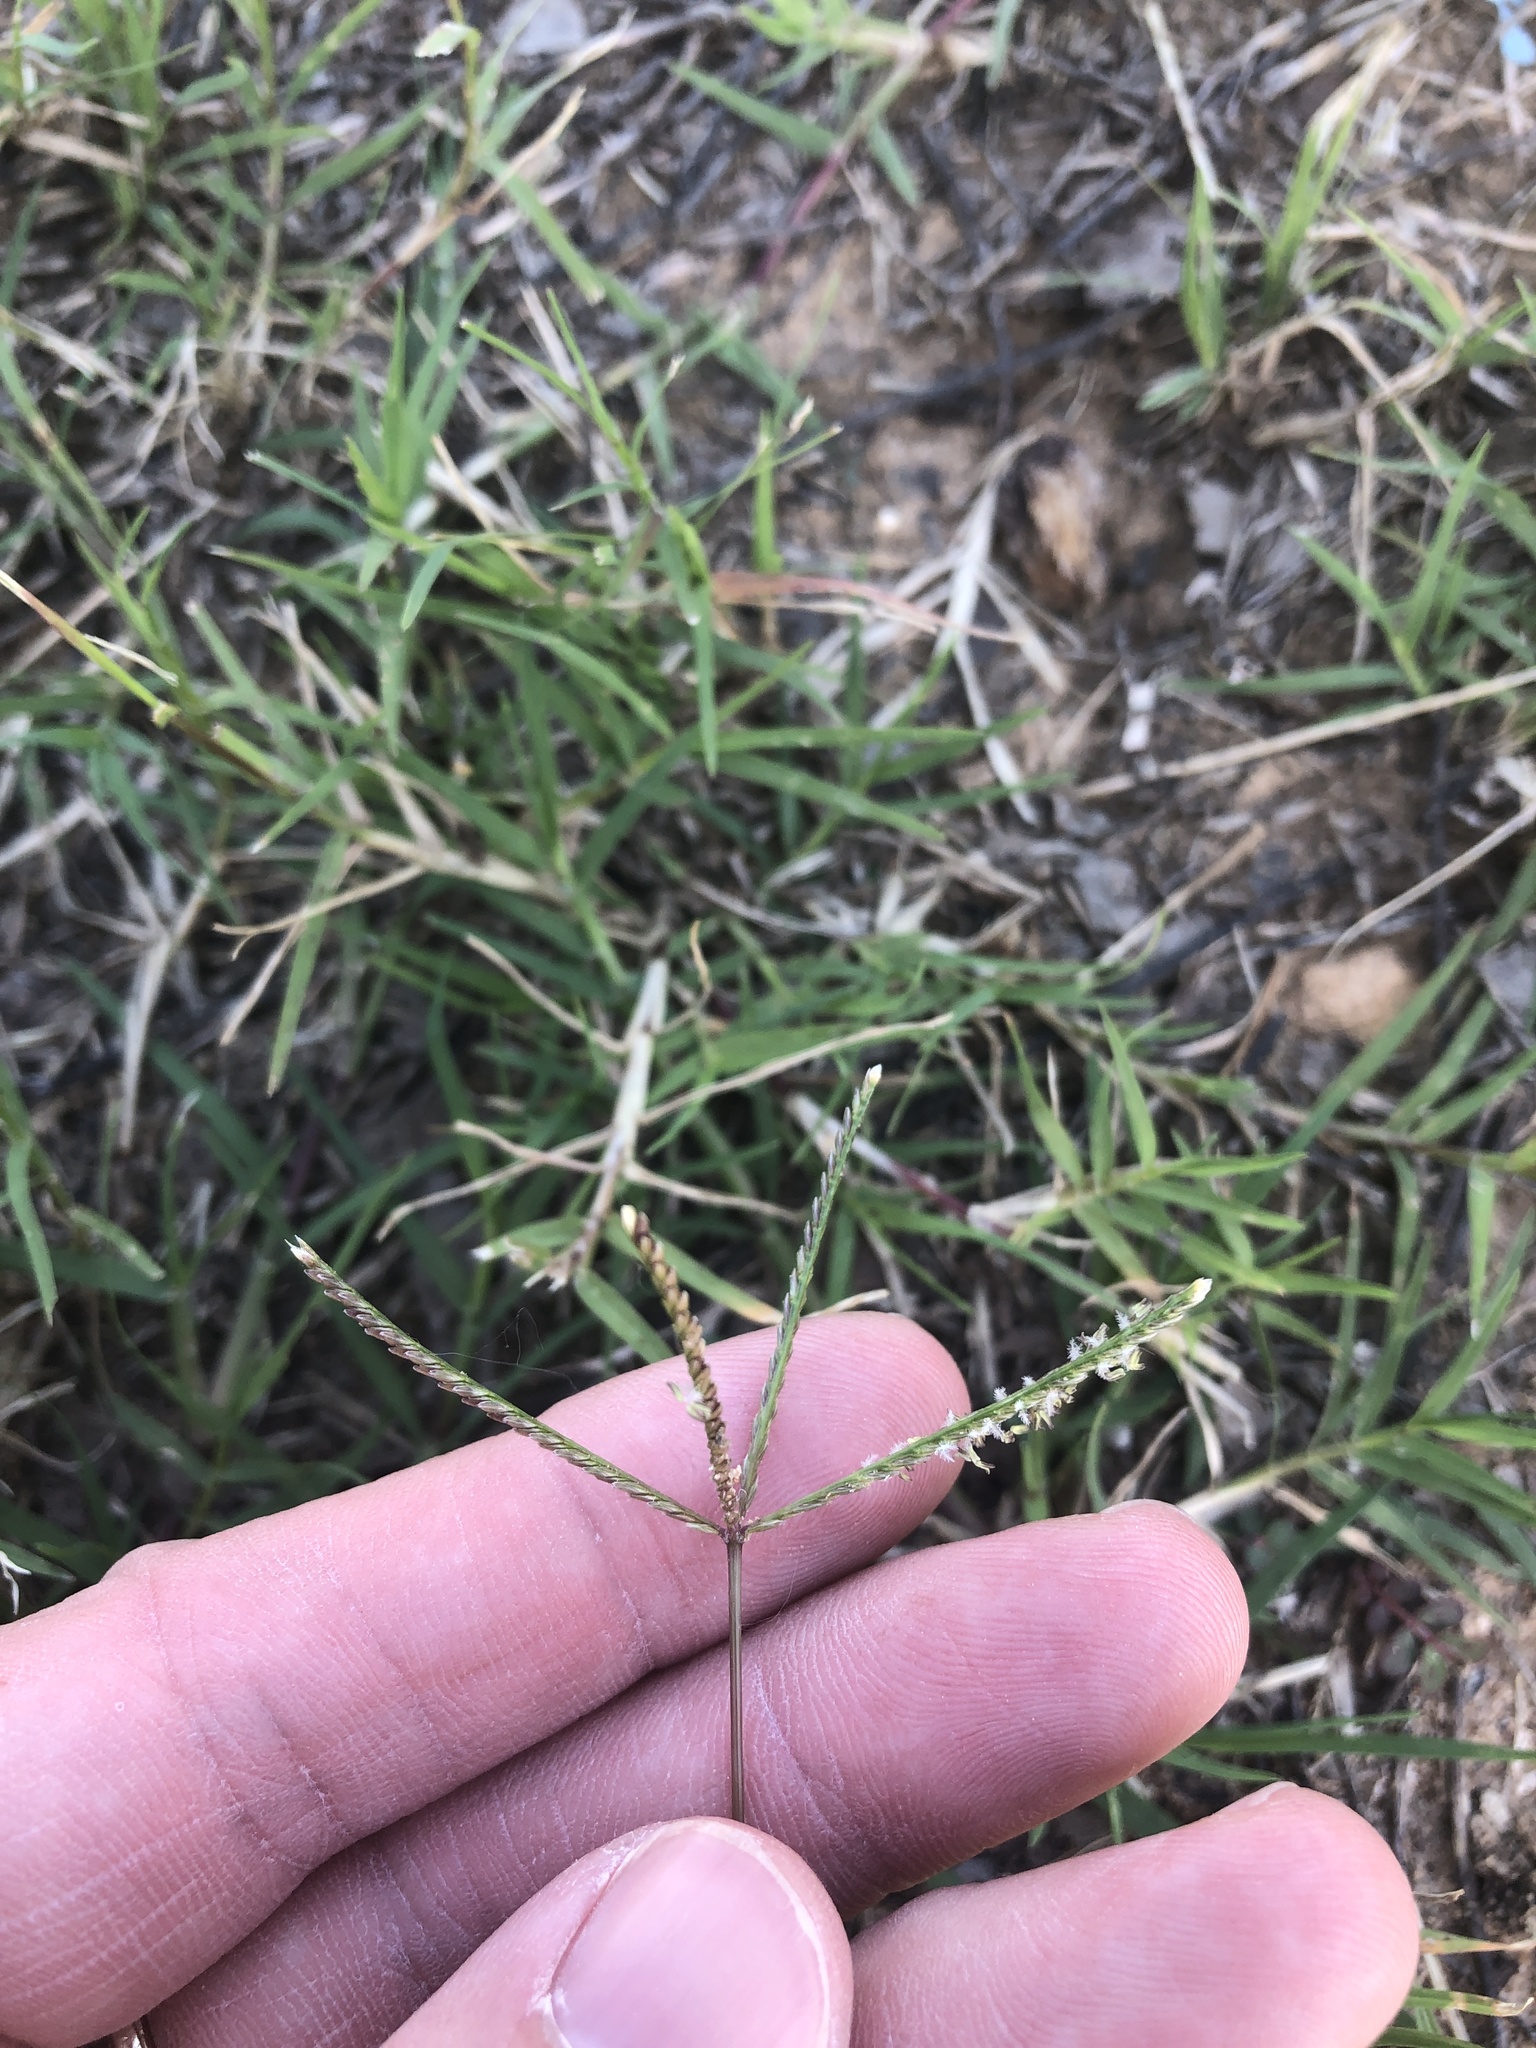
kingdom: Plantae
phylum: Tracheophyta
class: Liliopsida
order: Poales
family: Poaceae
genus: Cynodon
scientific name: Cynodon dactylon
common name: Bermuda grass
